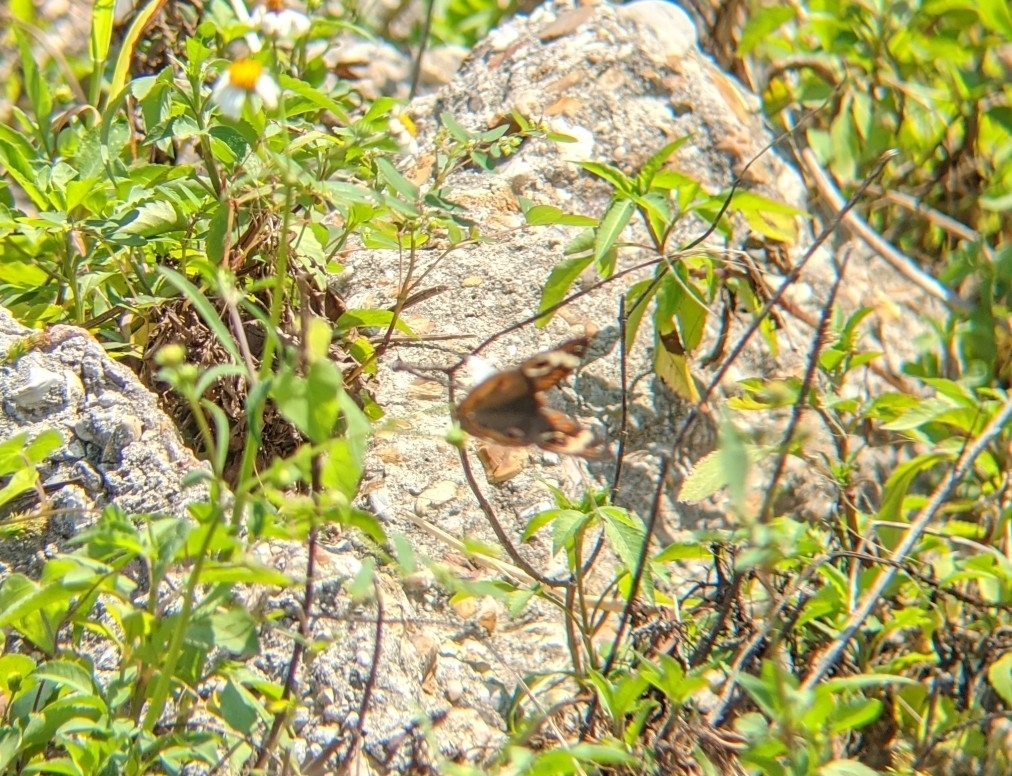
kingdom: Animalia
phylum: Arthropoda
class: Insecta
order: Lepidoptera
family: Nymphalidae
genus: Junonia
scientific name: Junonia coenia
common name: Common buckeye
